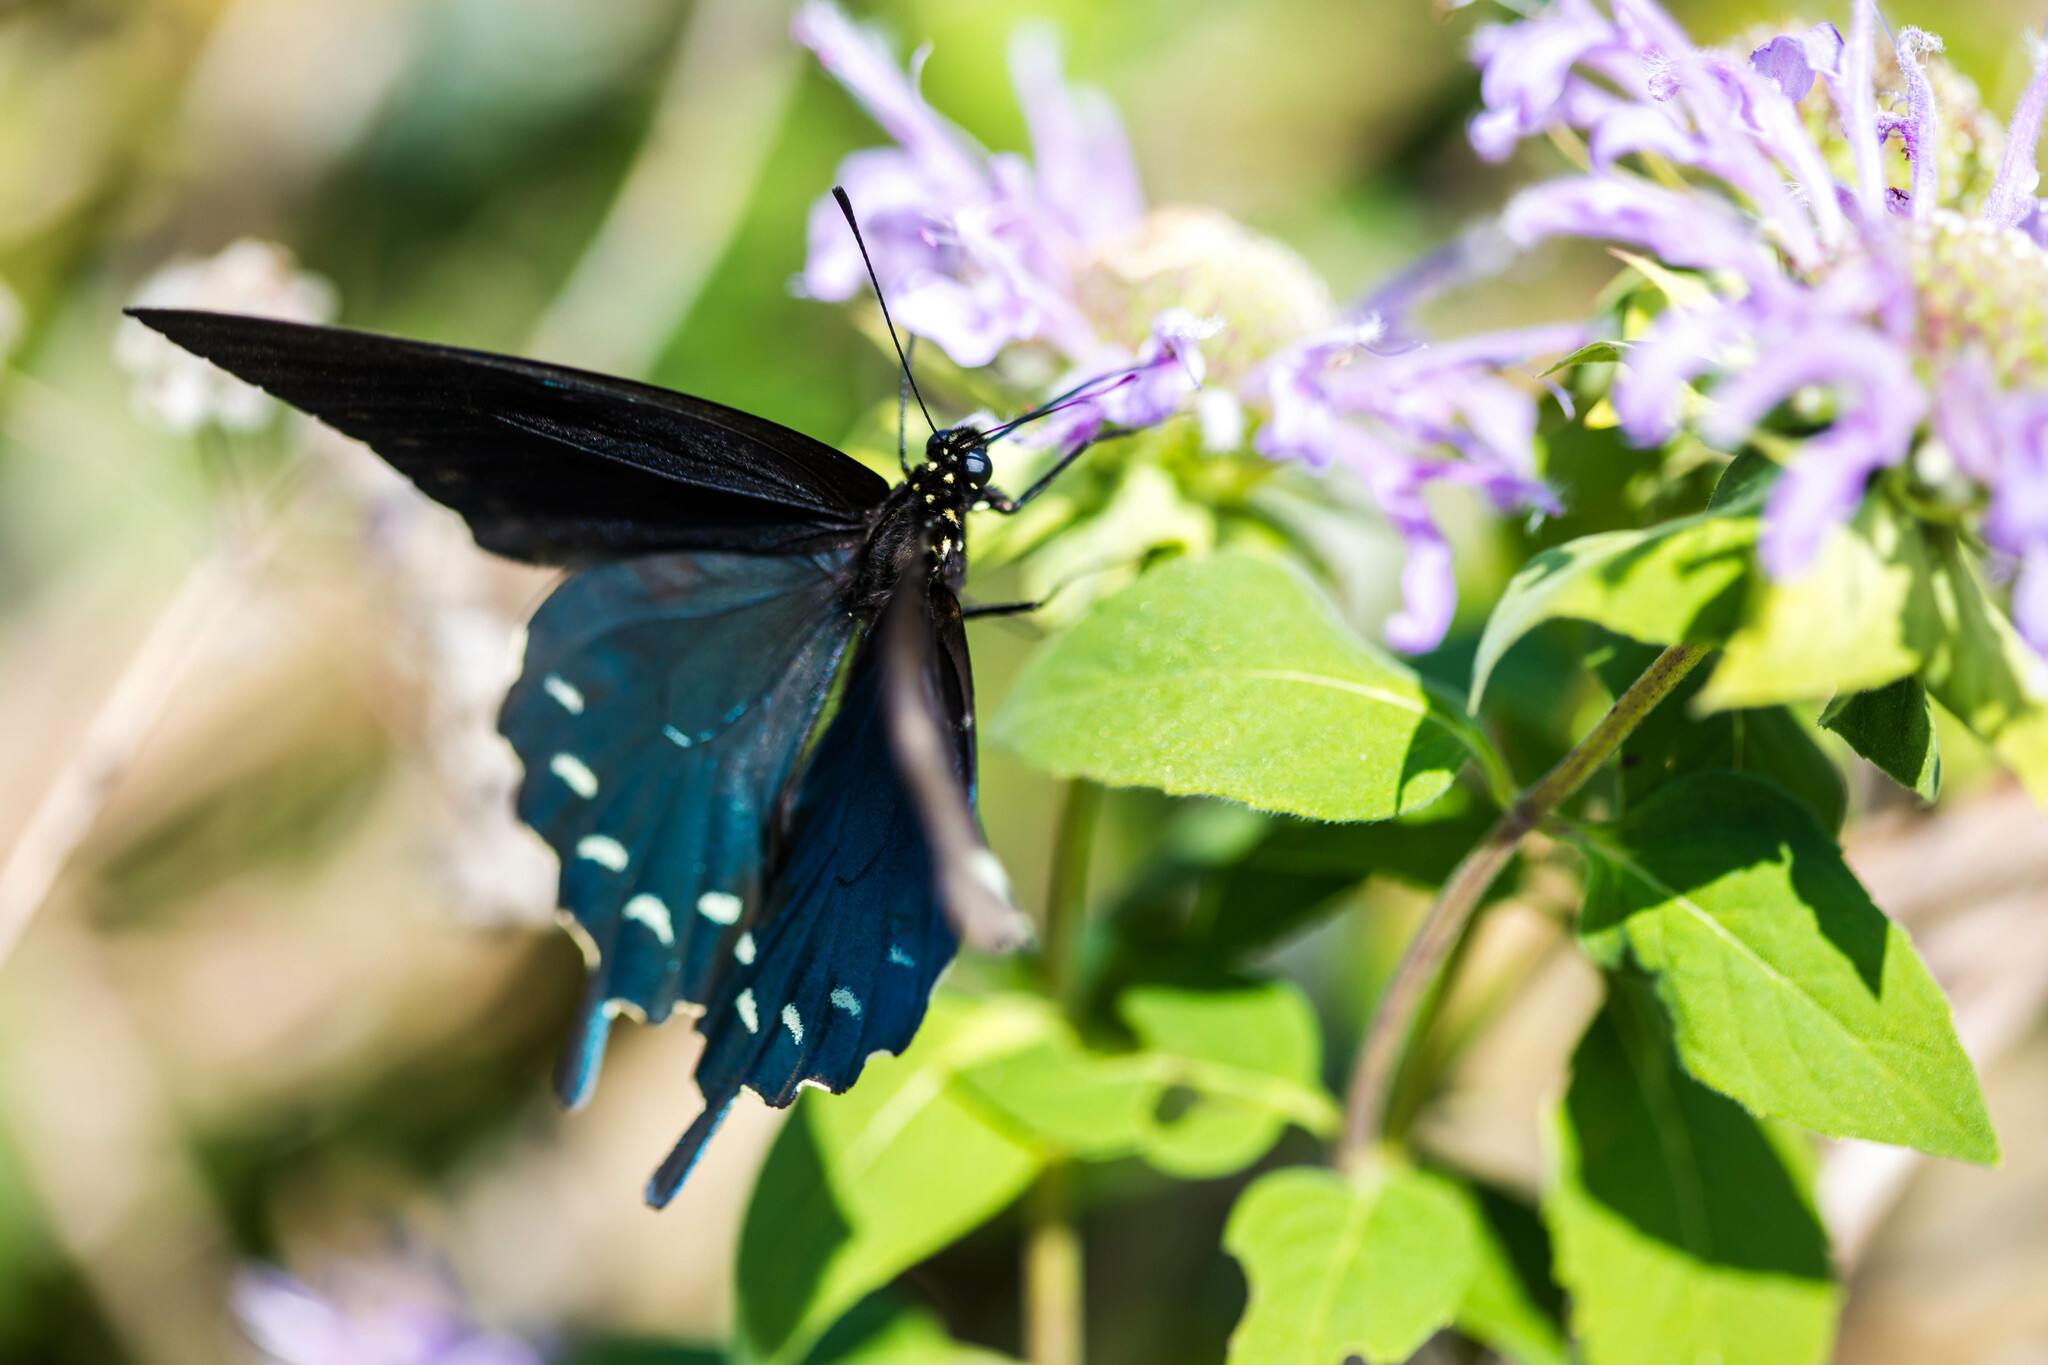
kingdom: Animalia
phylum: Arthropoda
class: Insecta
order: Lepidoptera
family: Papilionidae
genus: Battus
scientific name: Battus philenor
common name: Pipevine swallowtail
